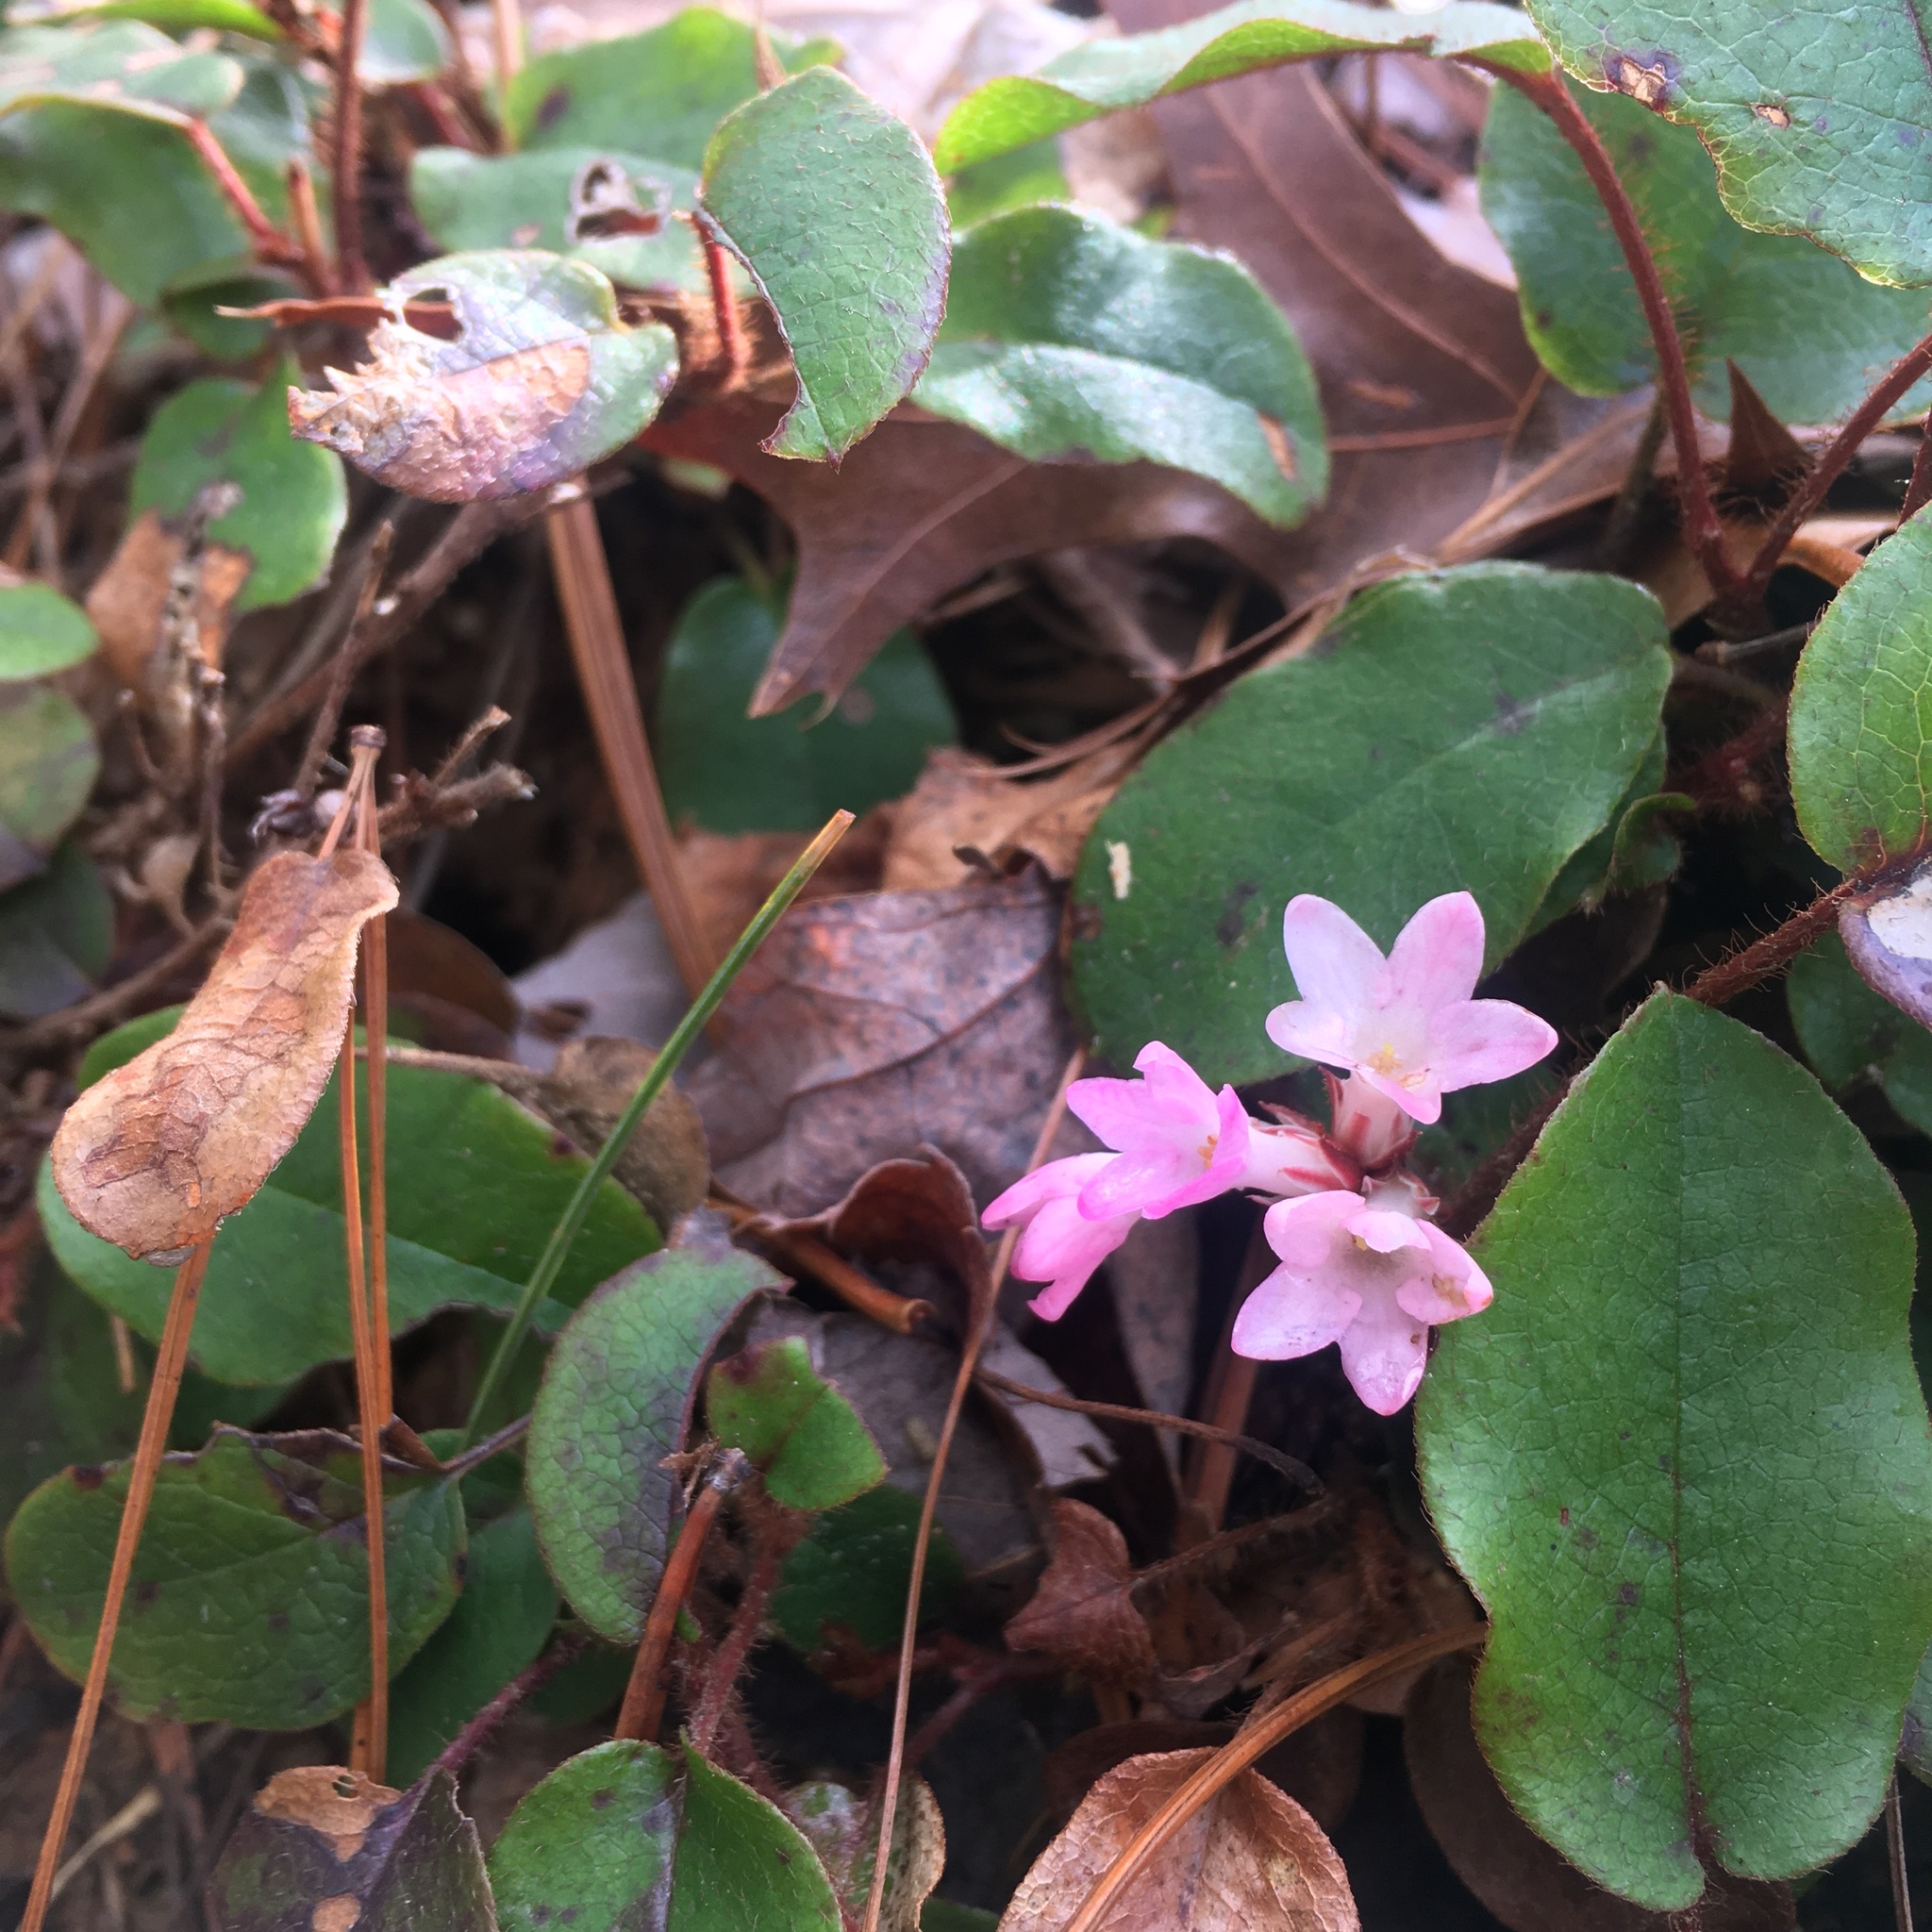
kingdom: Plantae
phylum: Tracheophyta
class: Magnoliopsida
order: Ericales
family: Ericaceae
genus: Epigaea
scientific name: Epigaea repens
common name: Gravelroot
